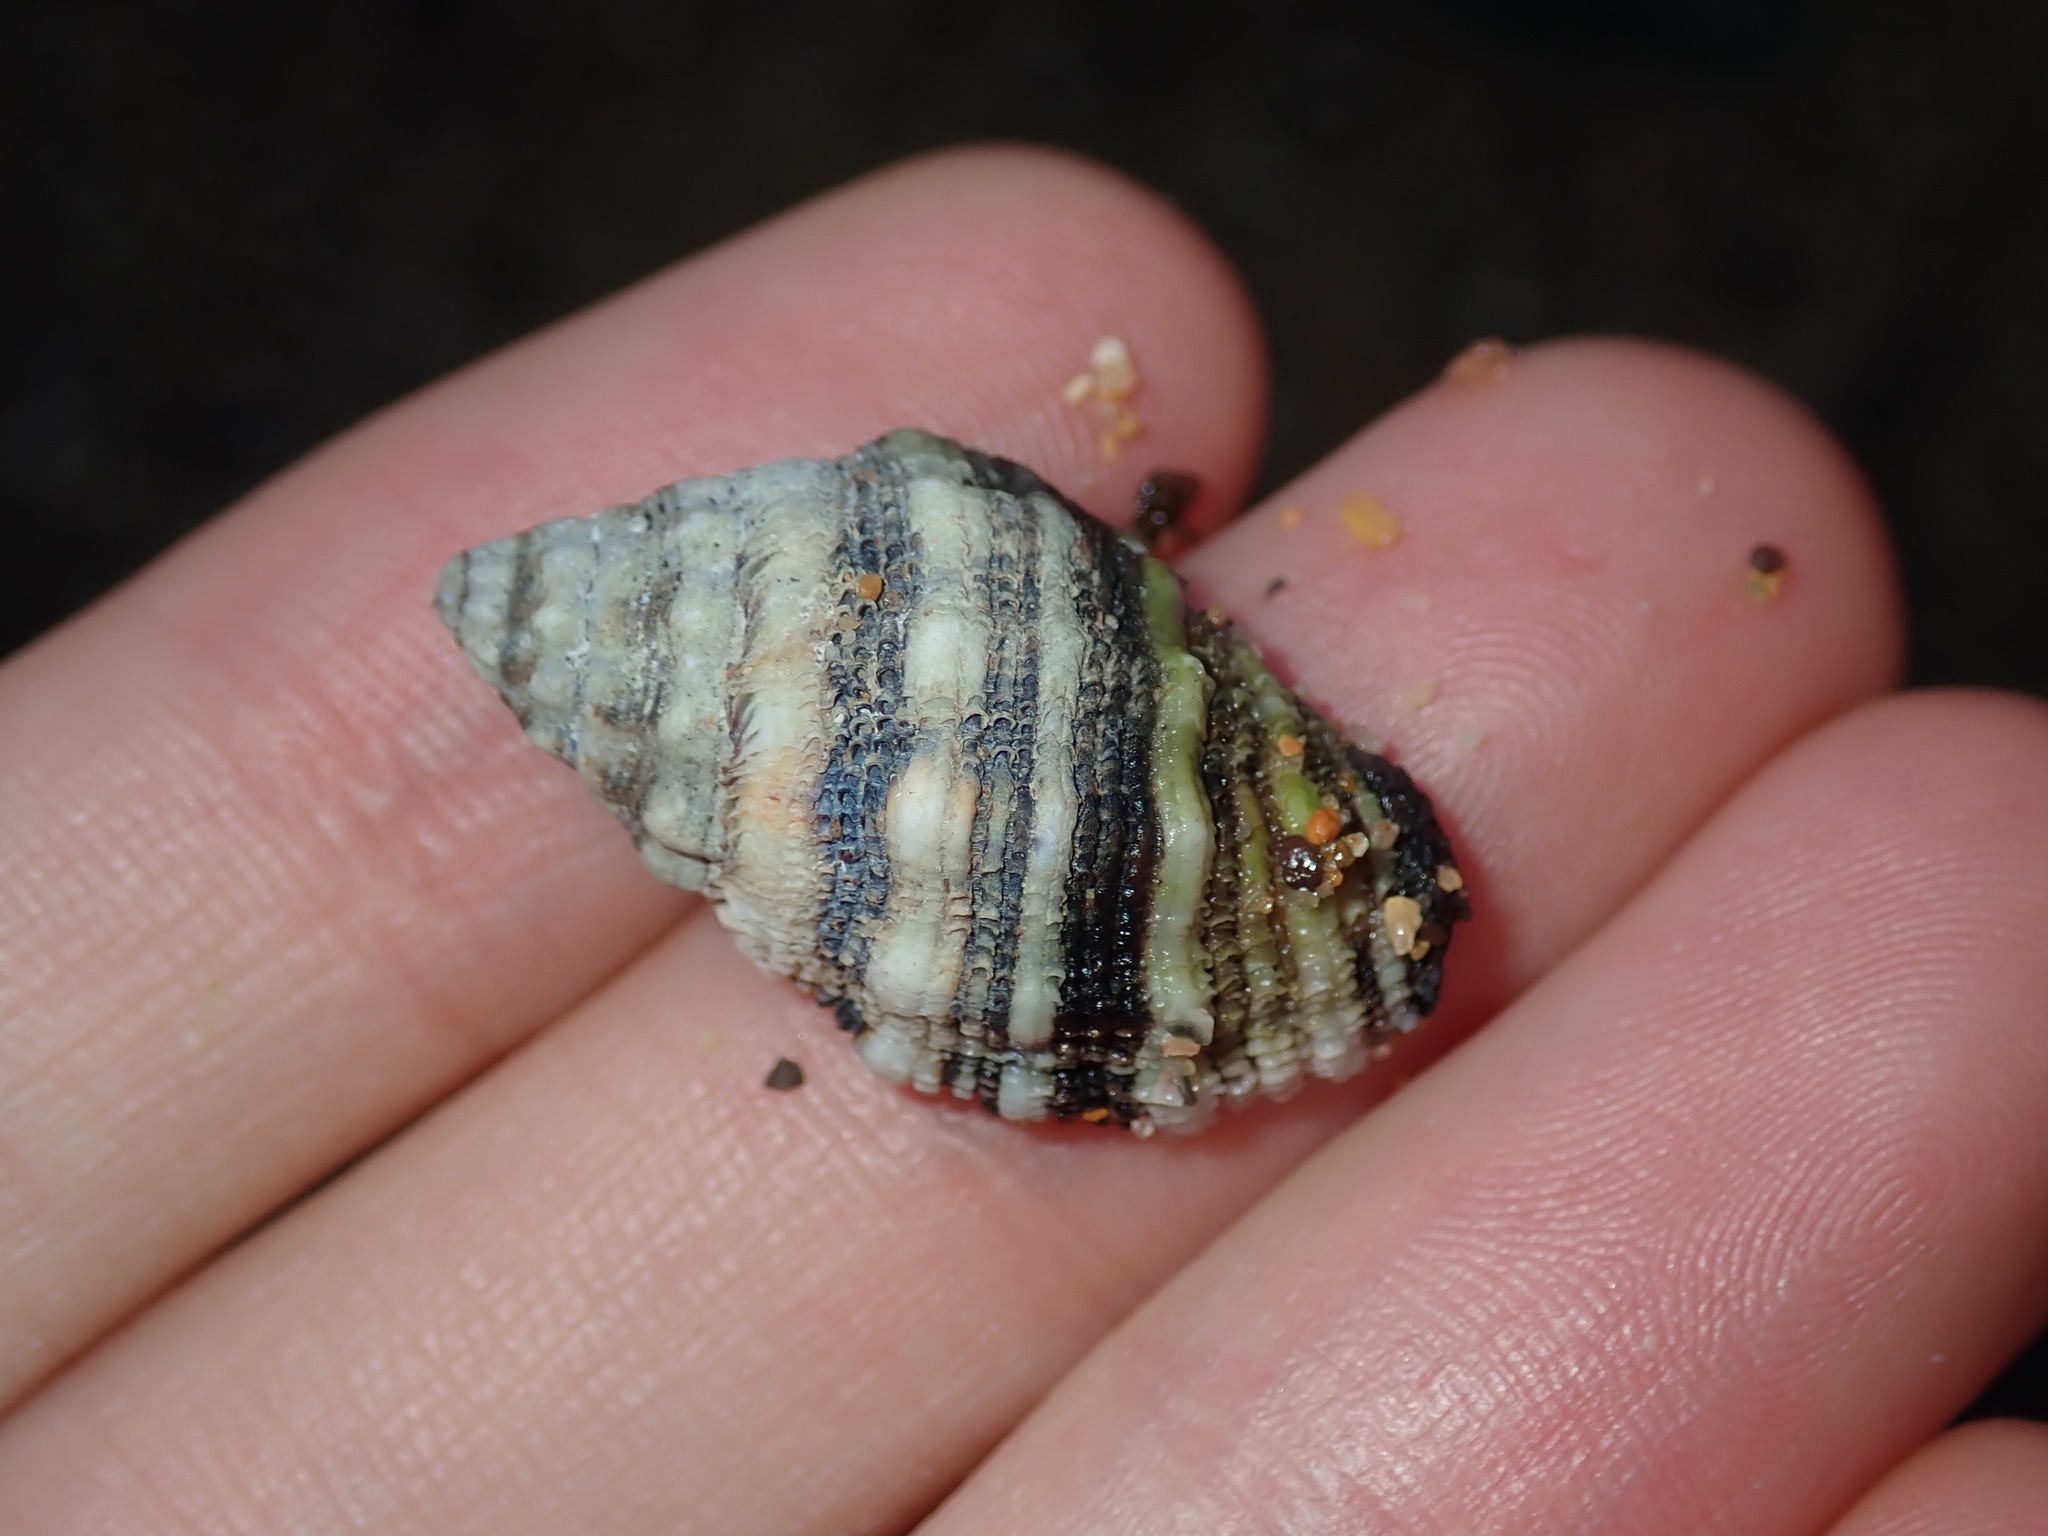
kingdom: Animalia
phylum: Mollusca
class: Gastropoda
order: Neogastropoda
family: Muricidae
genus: Cronia
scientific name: Cronia aurantiaca
